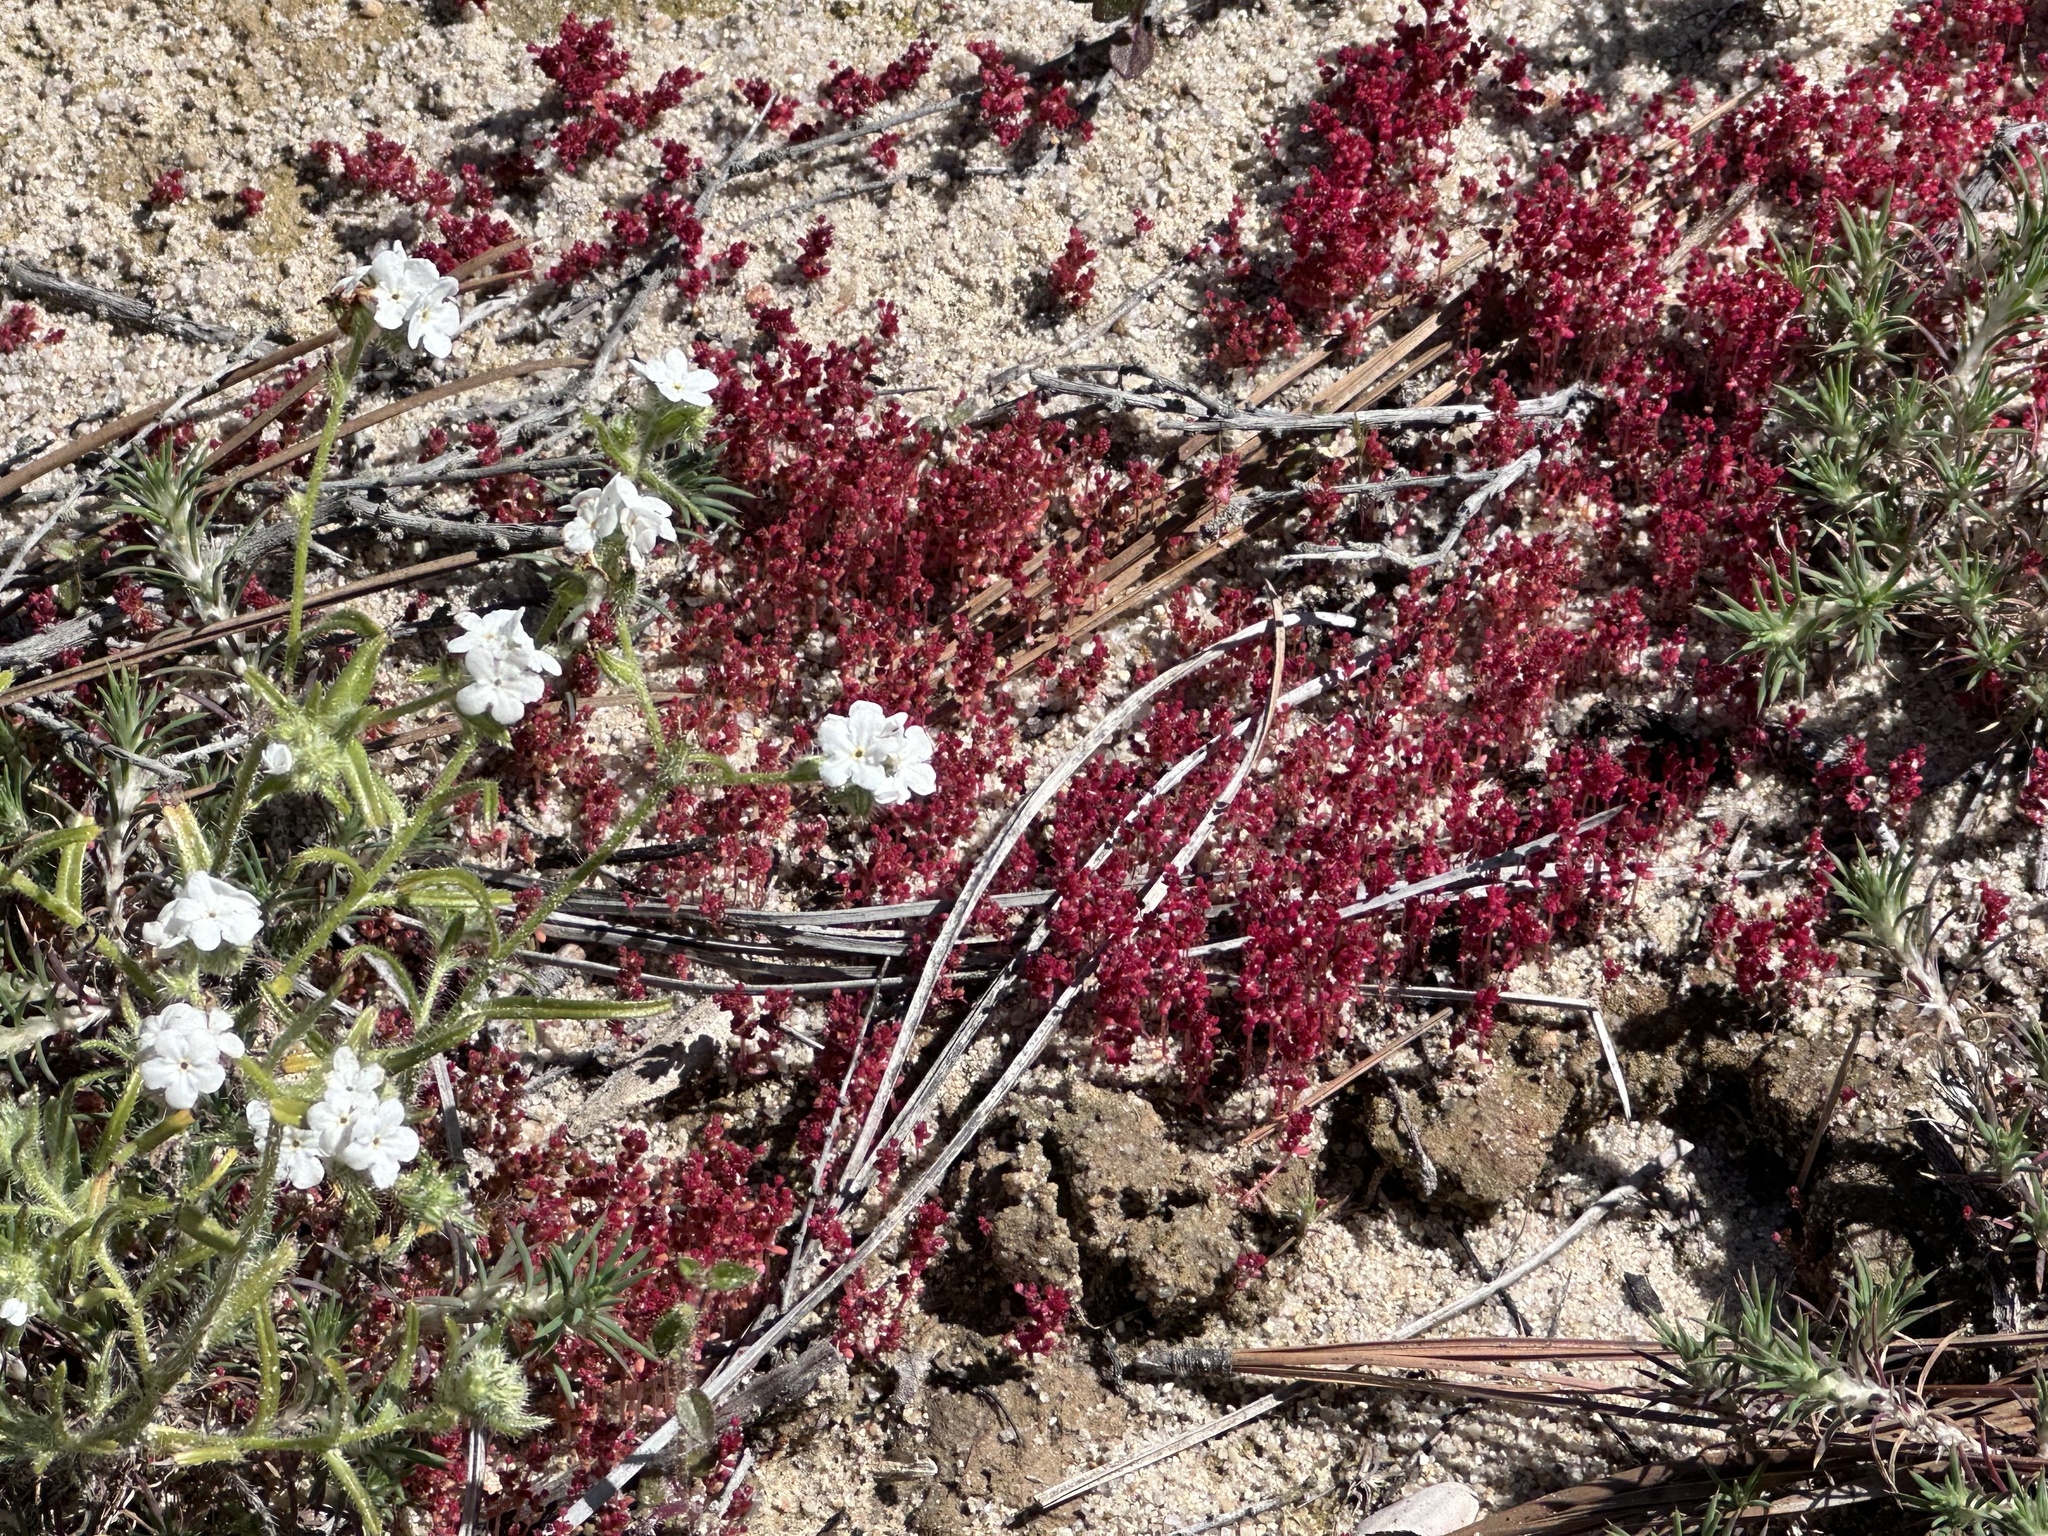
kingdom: Plantae
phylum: Tracheophyta
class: Magnoliopsida
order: Saxifragales
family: Crassulaceae
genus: Crassula
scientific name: Crassula connata
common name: Erect pygmyweed
